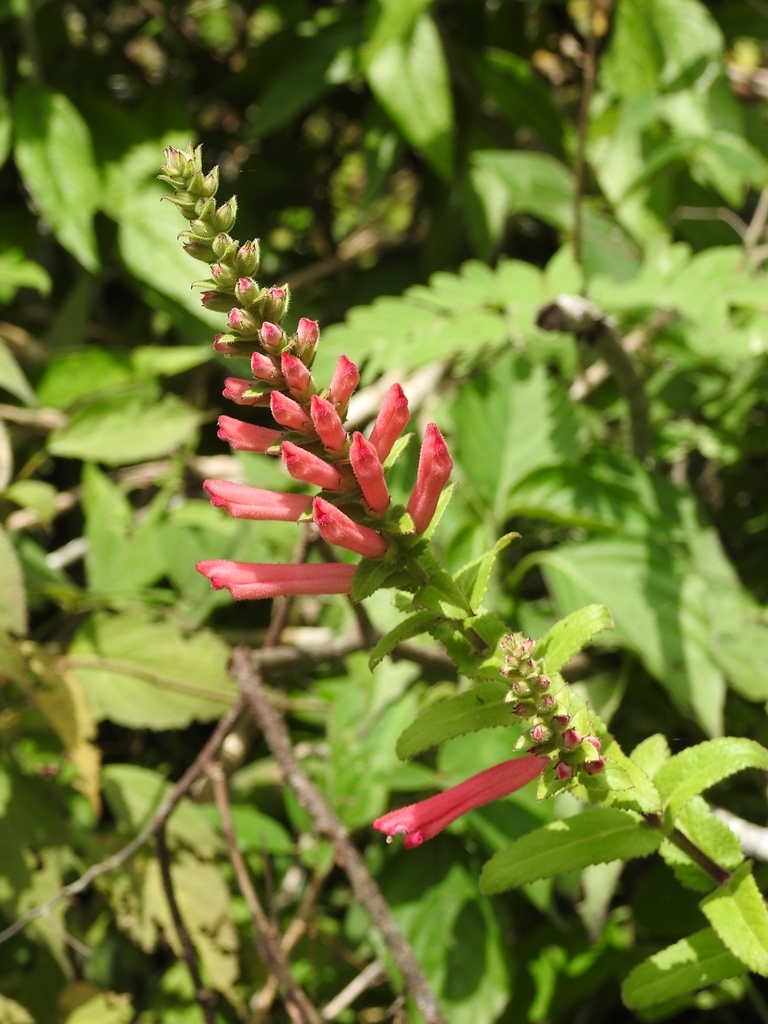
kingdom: Plantae
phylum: Tracheophyta
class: Magnoliopsida
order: Lamiales
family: Orobanchaceae
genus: Lamourouxia
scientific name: Lamourouxia viscosa
